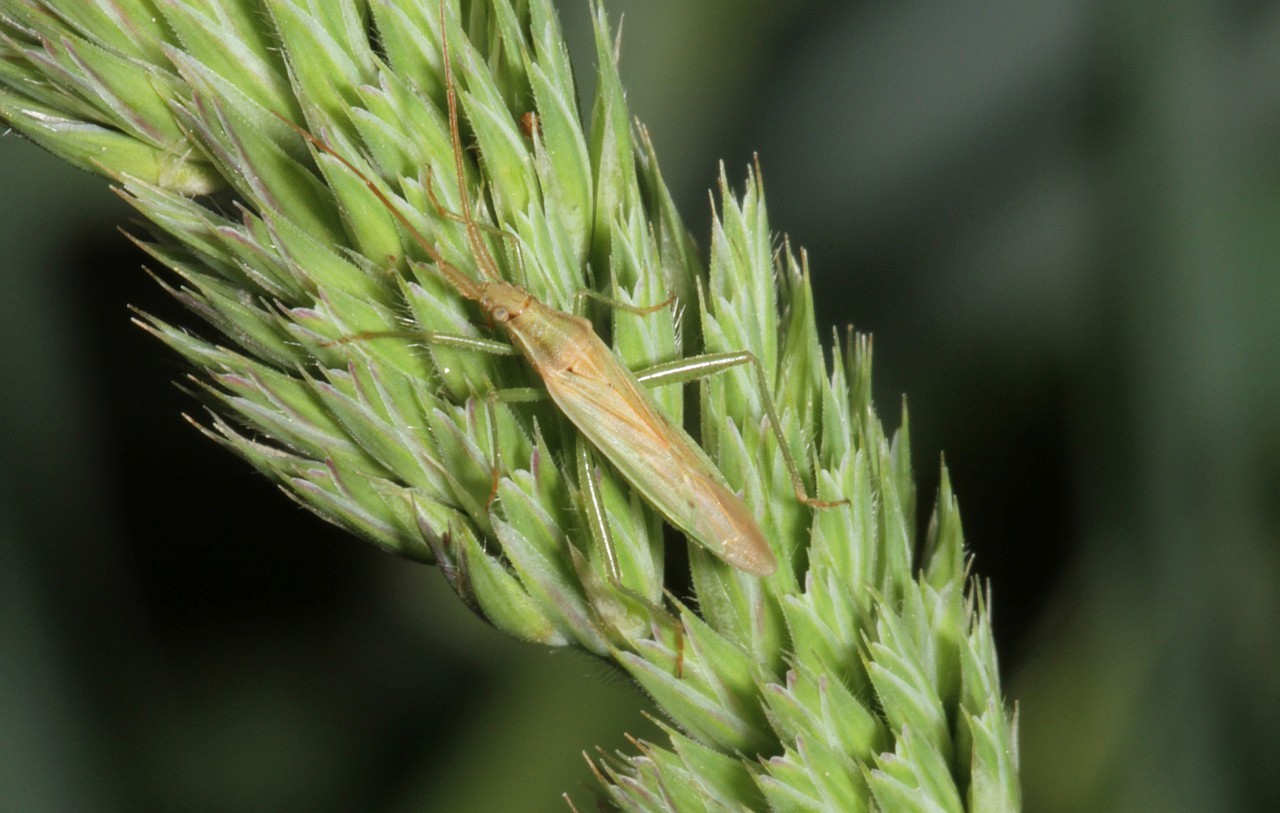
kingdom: Animalia
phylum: Arthropoda
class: Insecta
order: Hemiptera
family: Miridae
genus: Stenodema
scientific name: Stenodema laevigata
